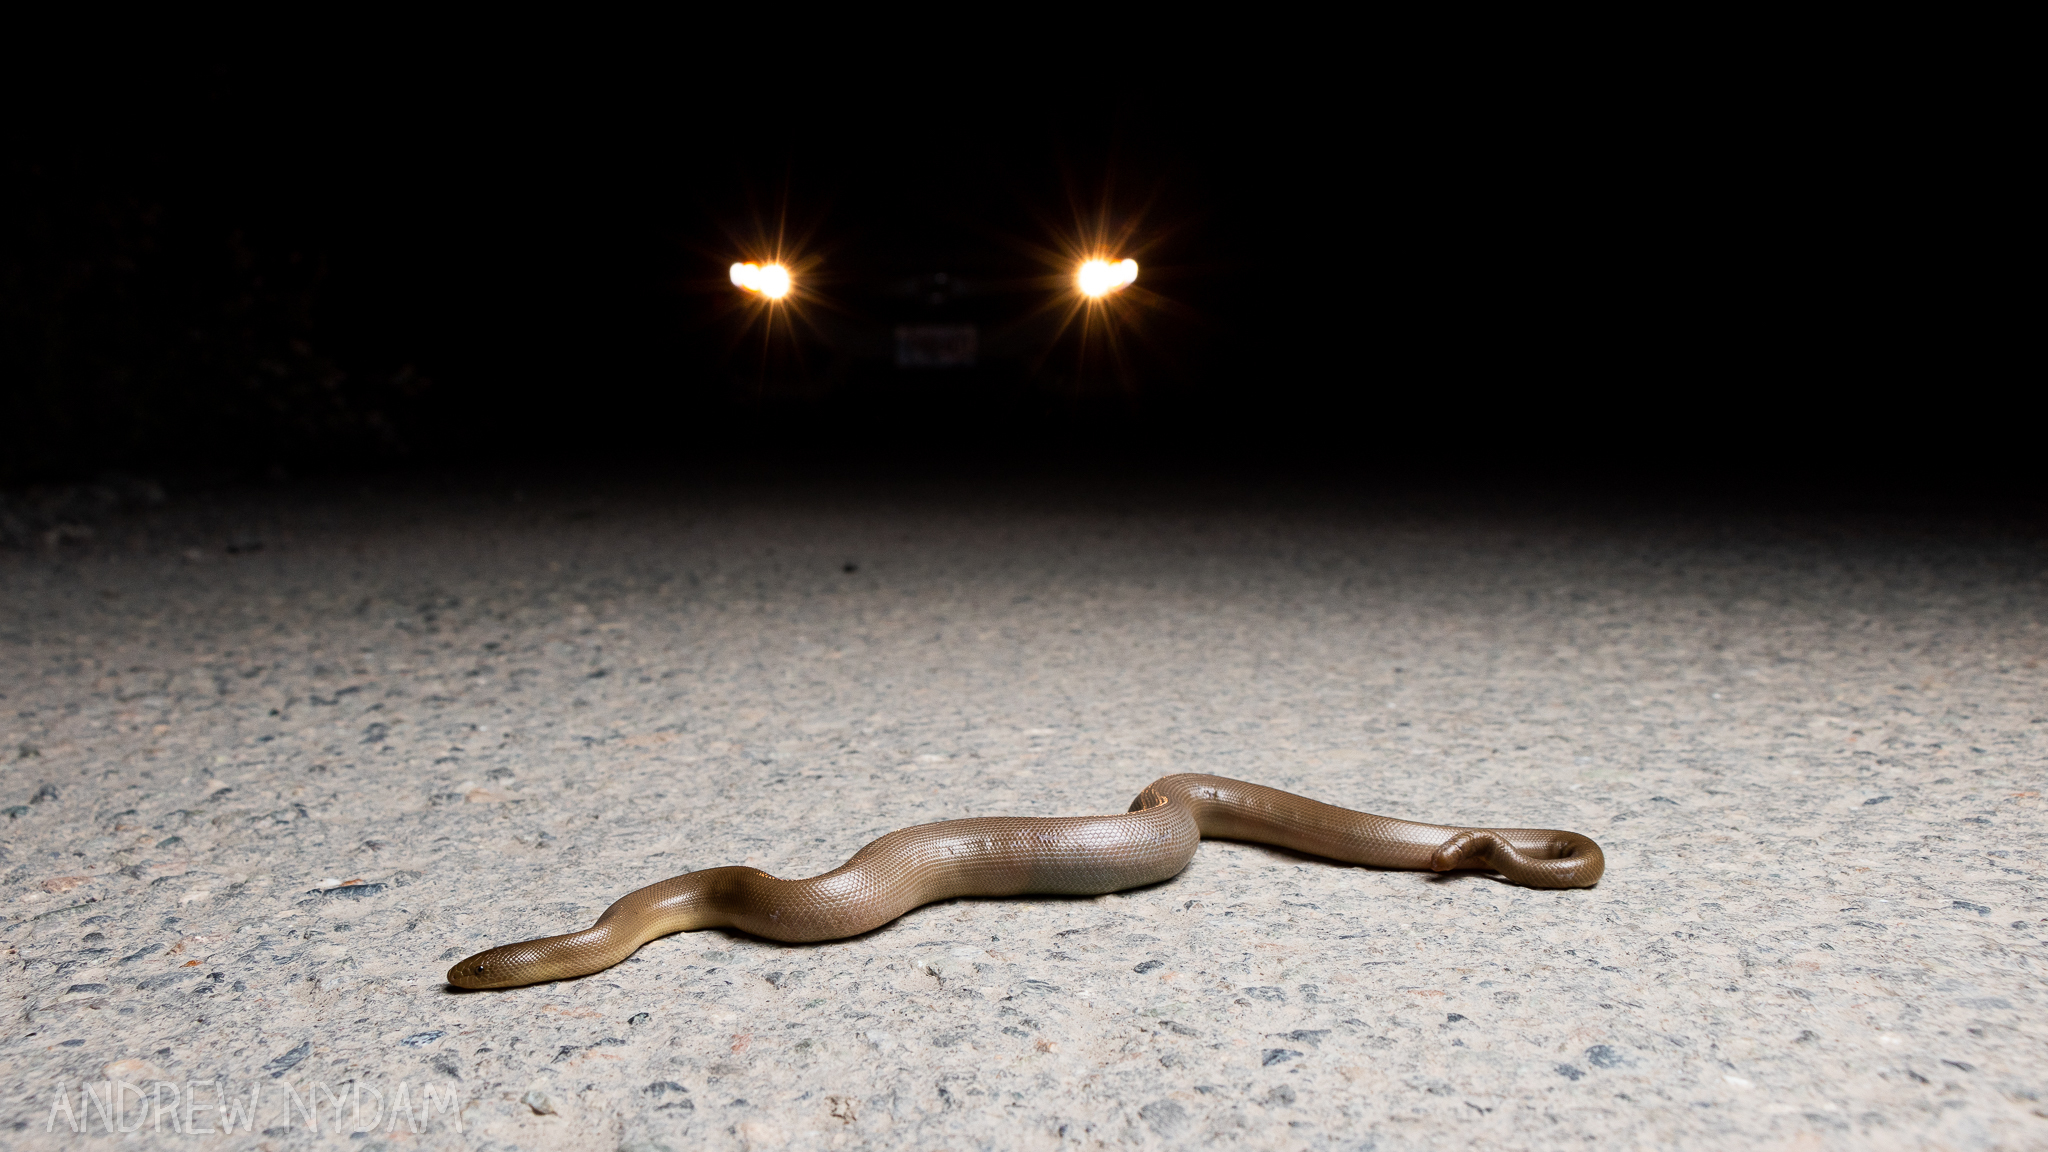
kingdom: Animalia
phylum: Chordata
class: Squamata
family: Boidae
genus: Charina
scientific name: Charina bottae
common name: Northern rubber boa
